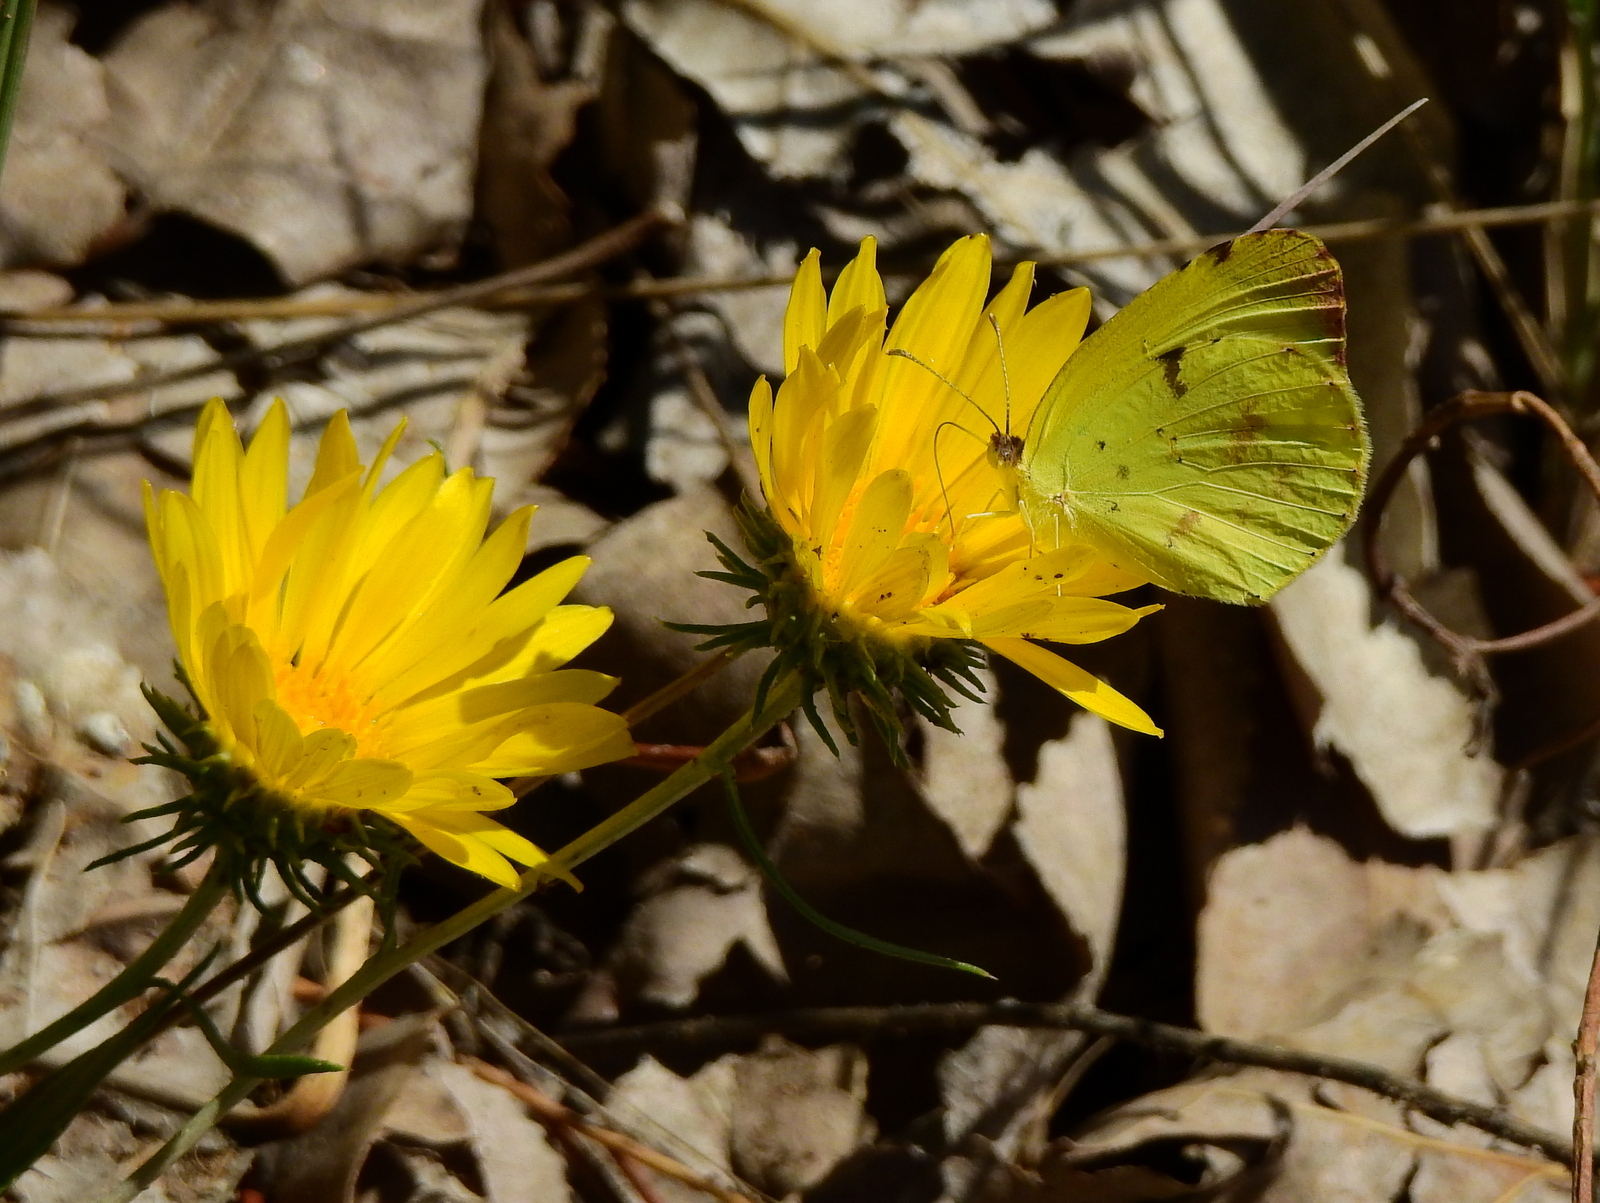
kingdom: Animalia
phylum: Arthropoda
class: Insecta
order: Lepidoptera
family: Pieridae
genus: Teriocolias
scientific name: Teriocolias
